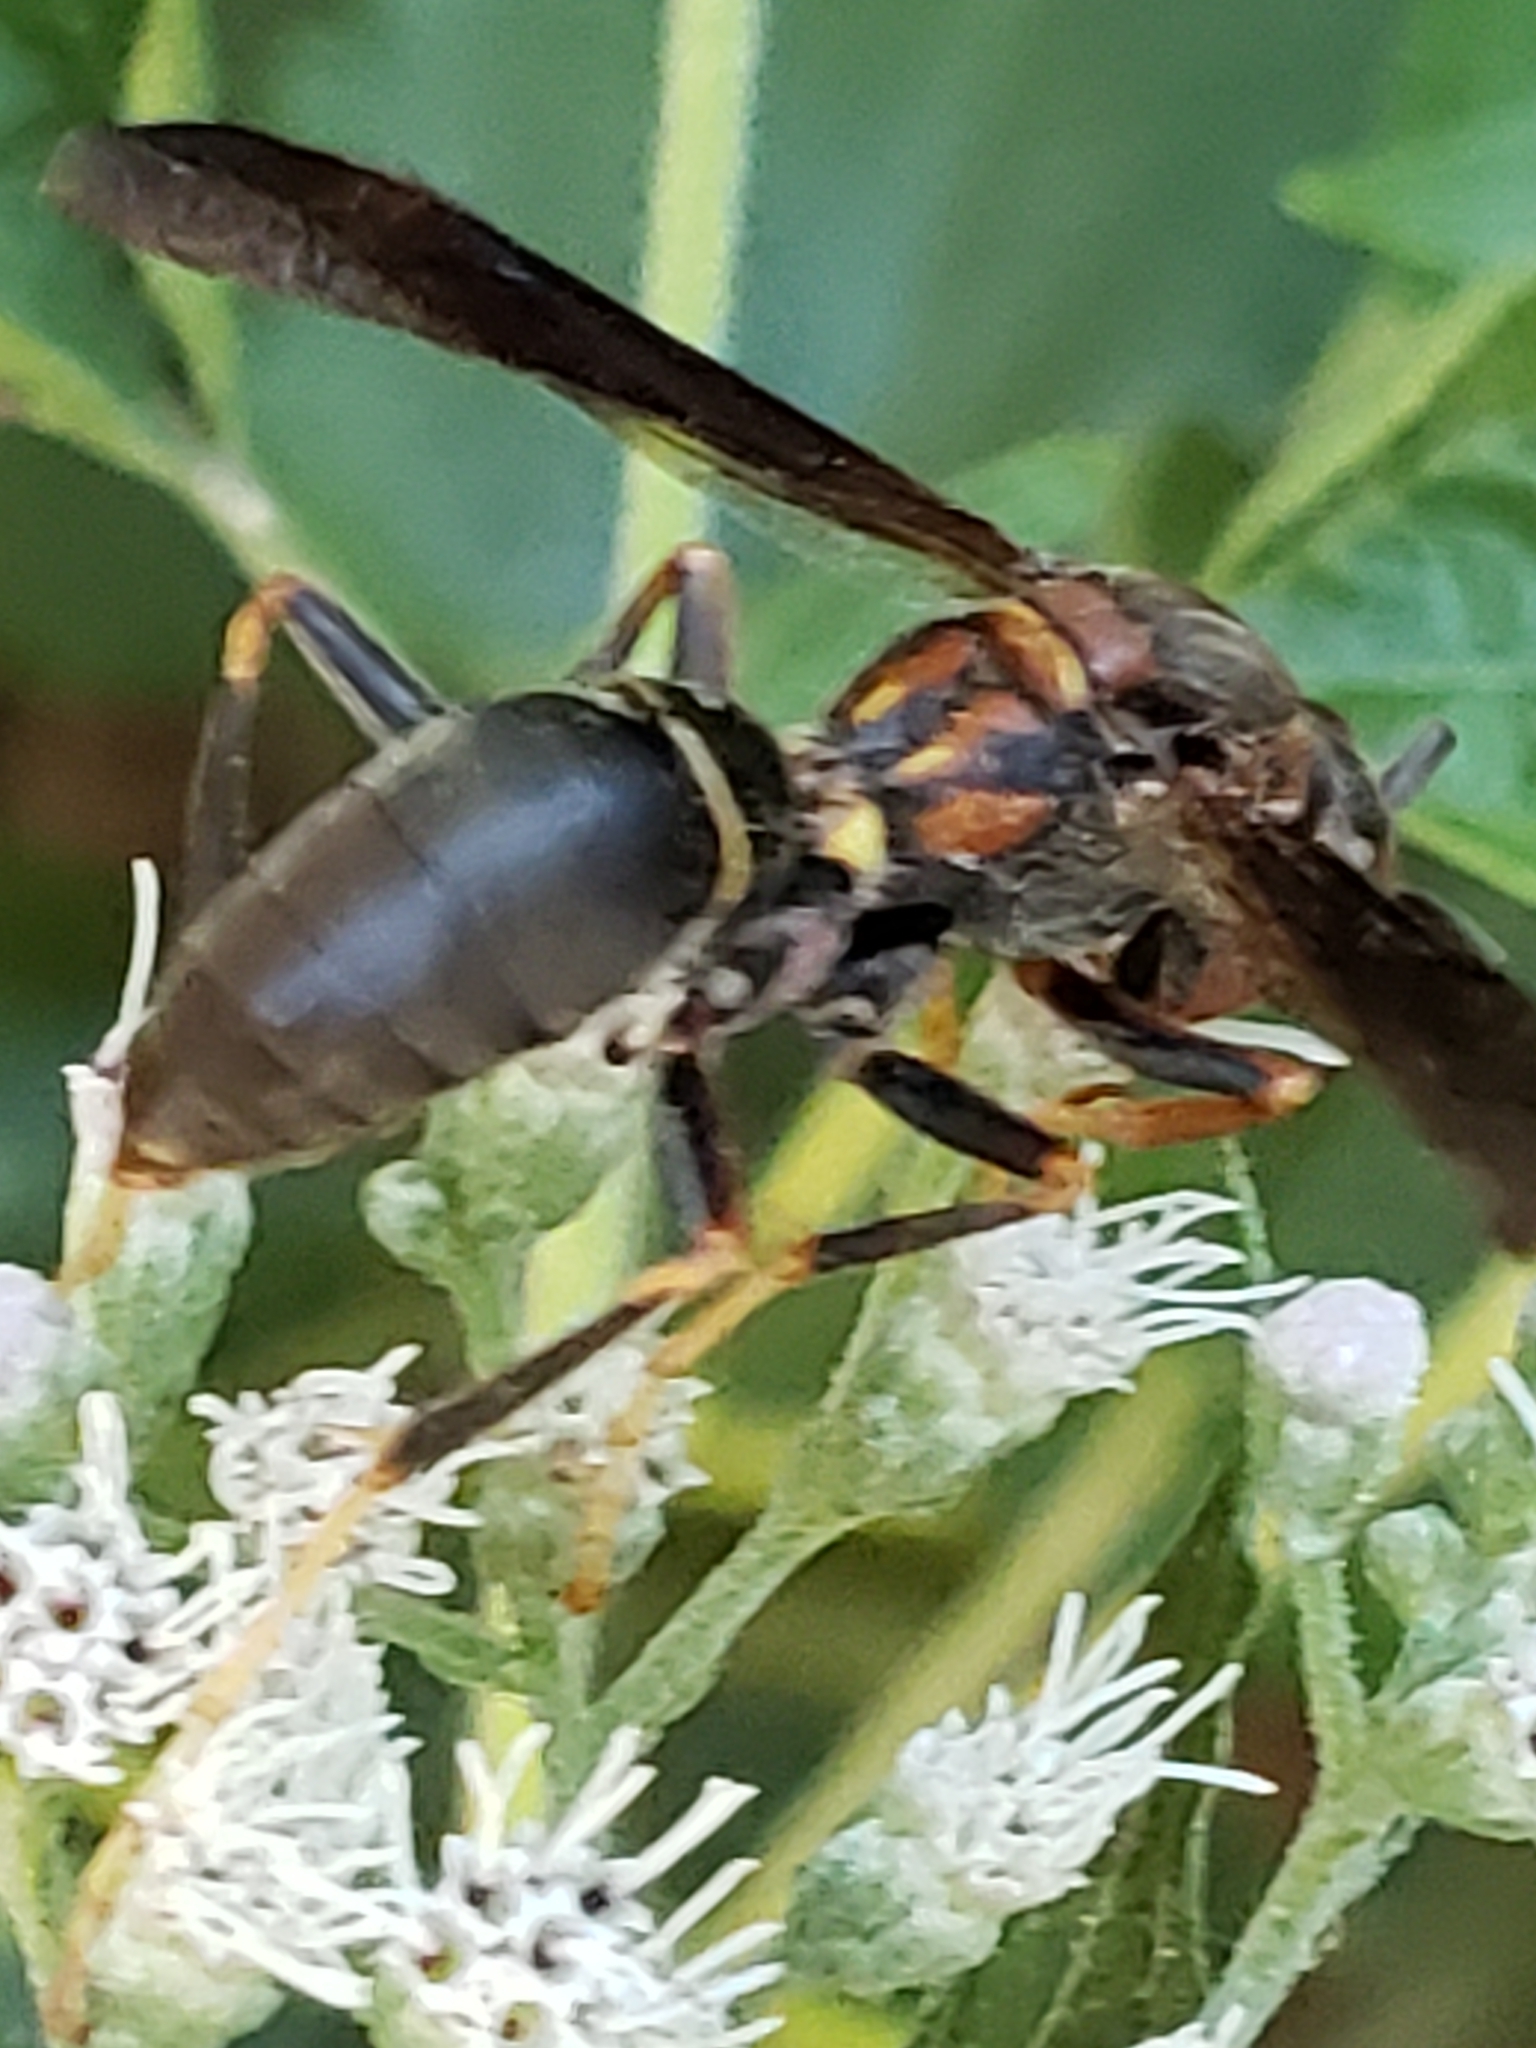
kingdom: Animalia
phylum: Arthropoda
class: Insecta
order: Hymenoptera
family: Vespidae
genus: Fuscopolistes
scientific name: Fuscopolistes
